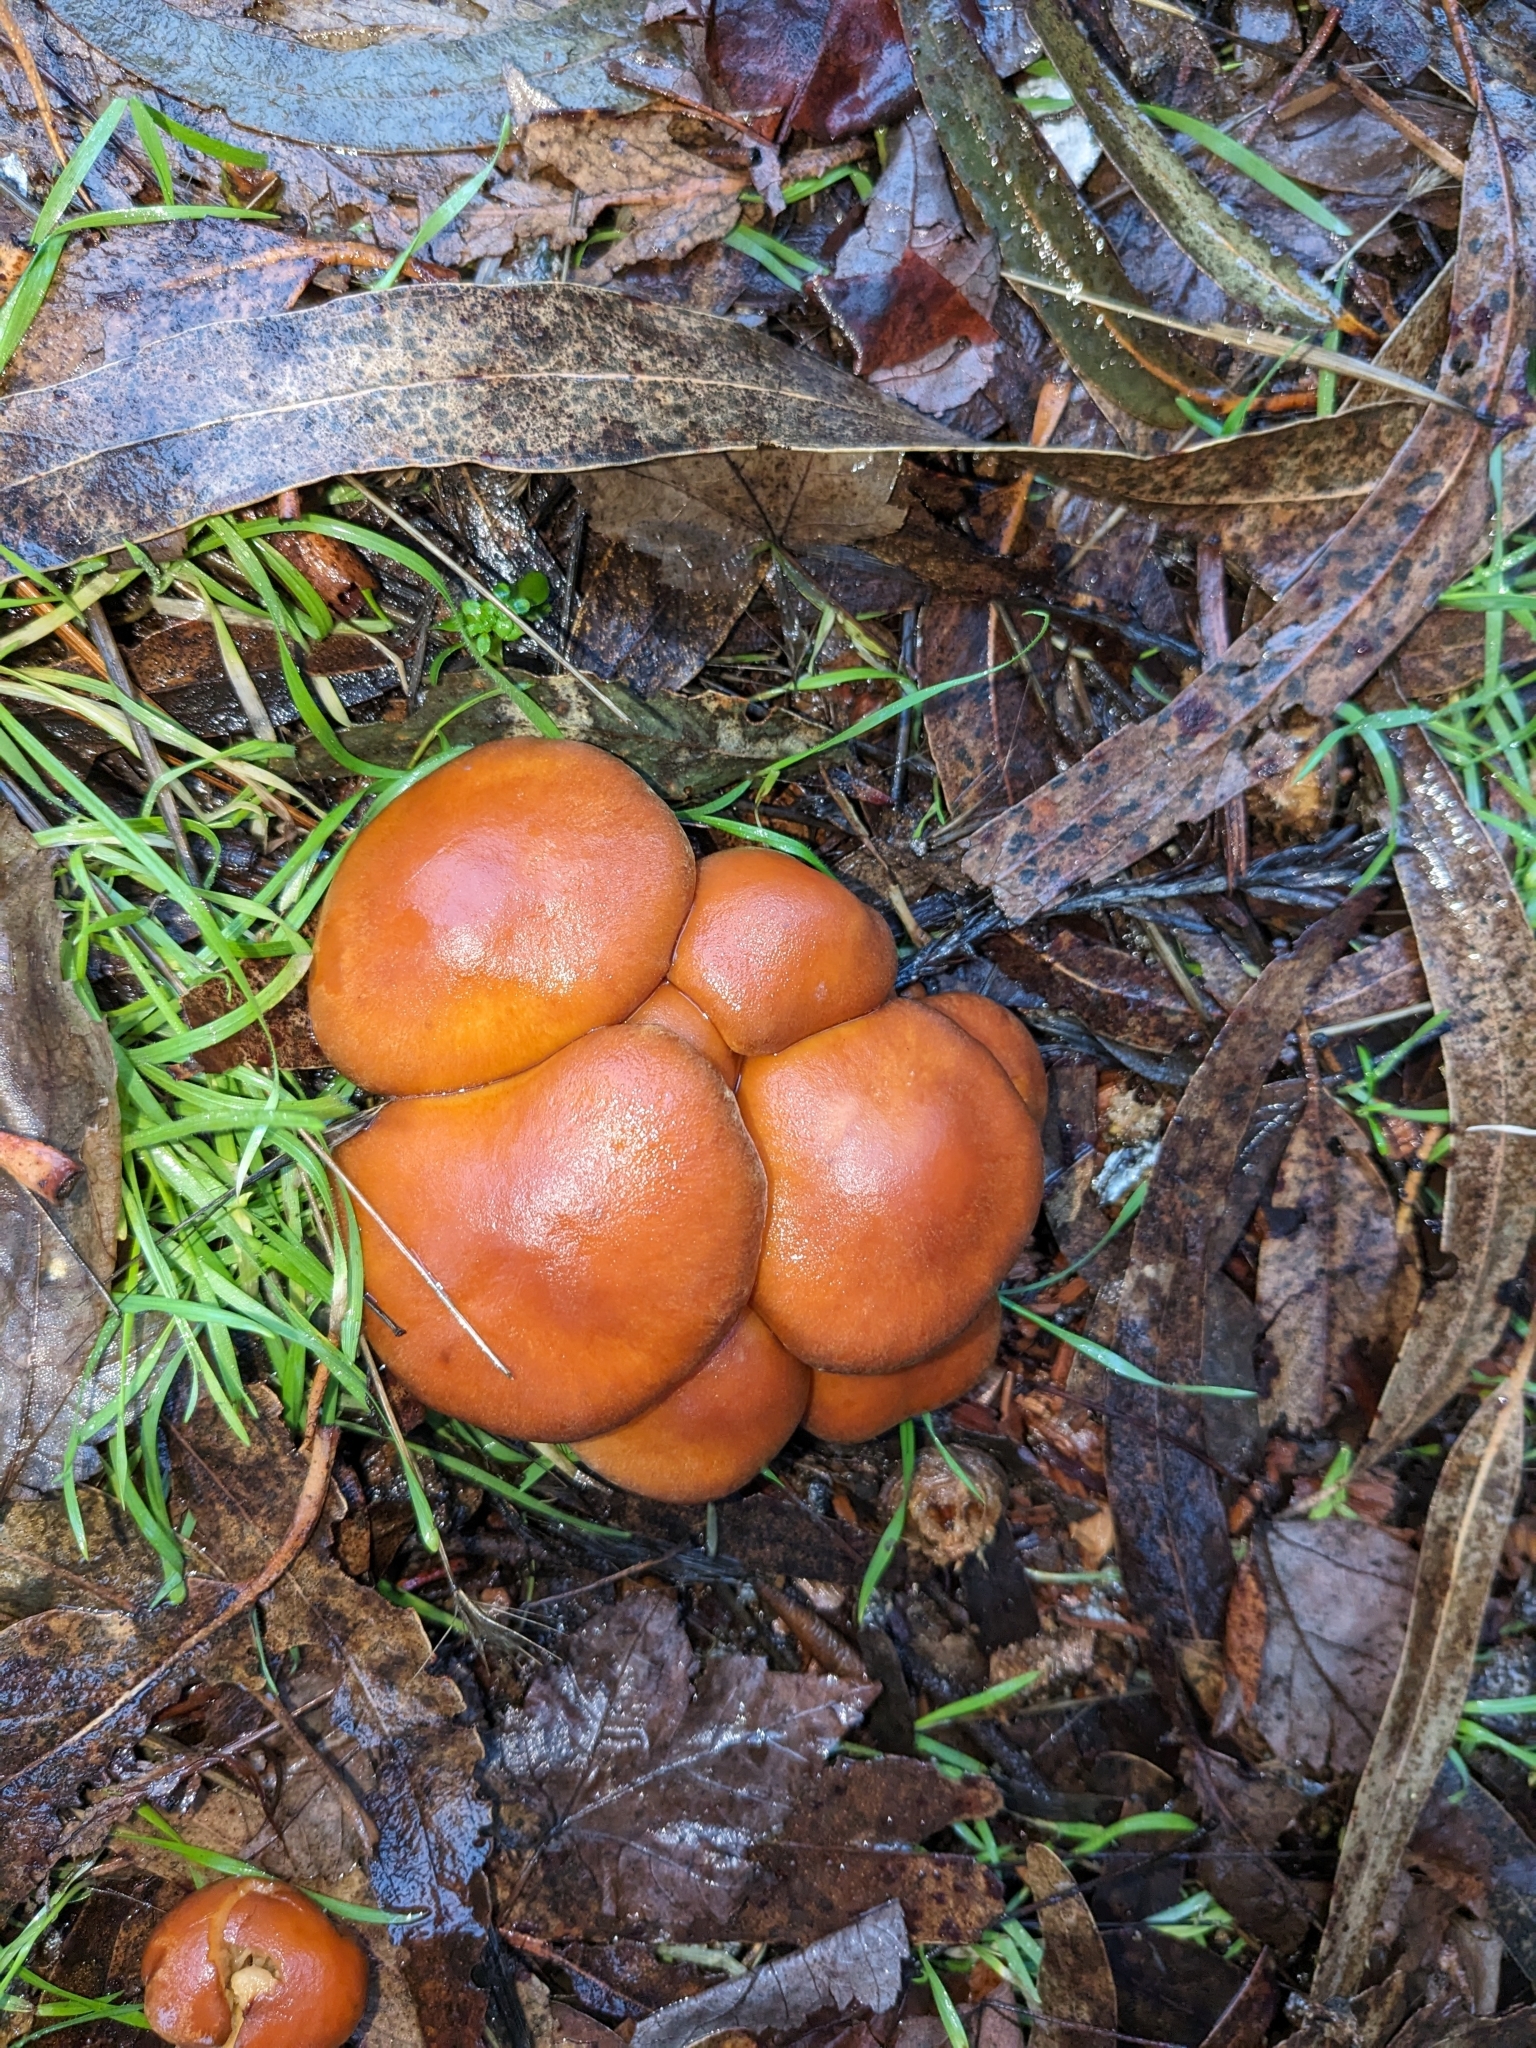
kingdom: Fungi
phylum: Basidiomycota
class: Agaricomycetes
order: Agaricales
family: Hymenogastraceae
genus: Gymnopilus
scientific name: Gymnopilus aurantiophyllus
